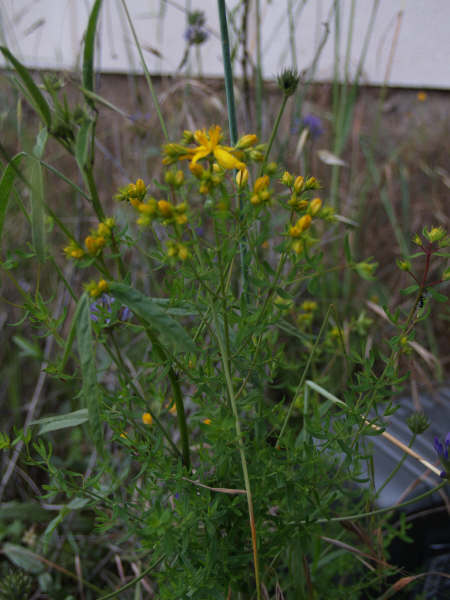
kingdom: Plantae
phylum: Tracheophyta
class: Magnoliopsida
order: Malpighiales
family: Hypericaceae
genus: Hypericum
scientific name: Hypericum perforatum
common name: Common st. johnswort
